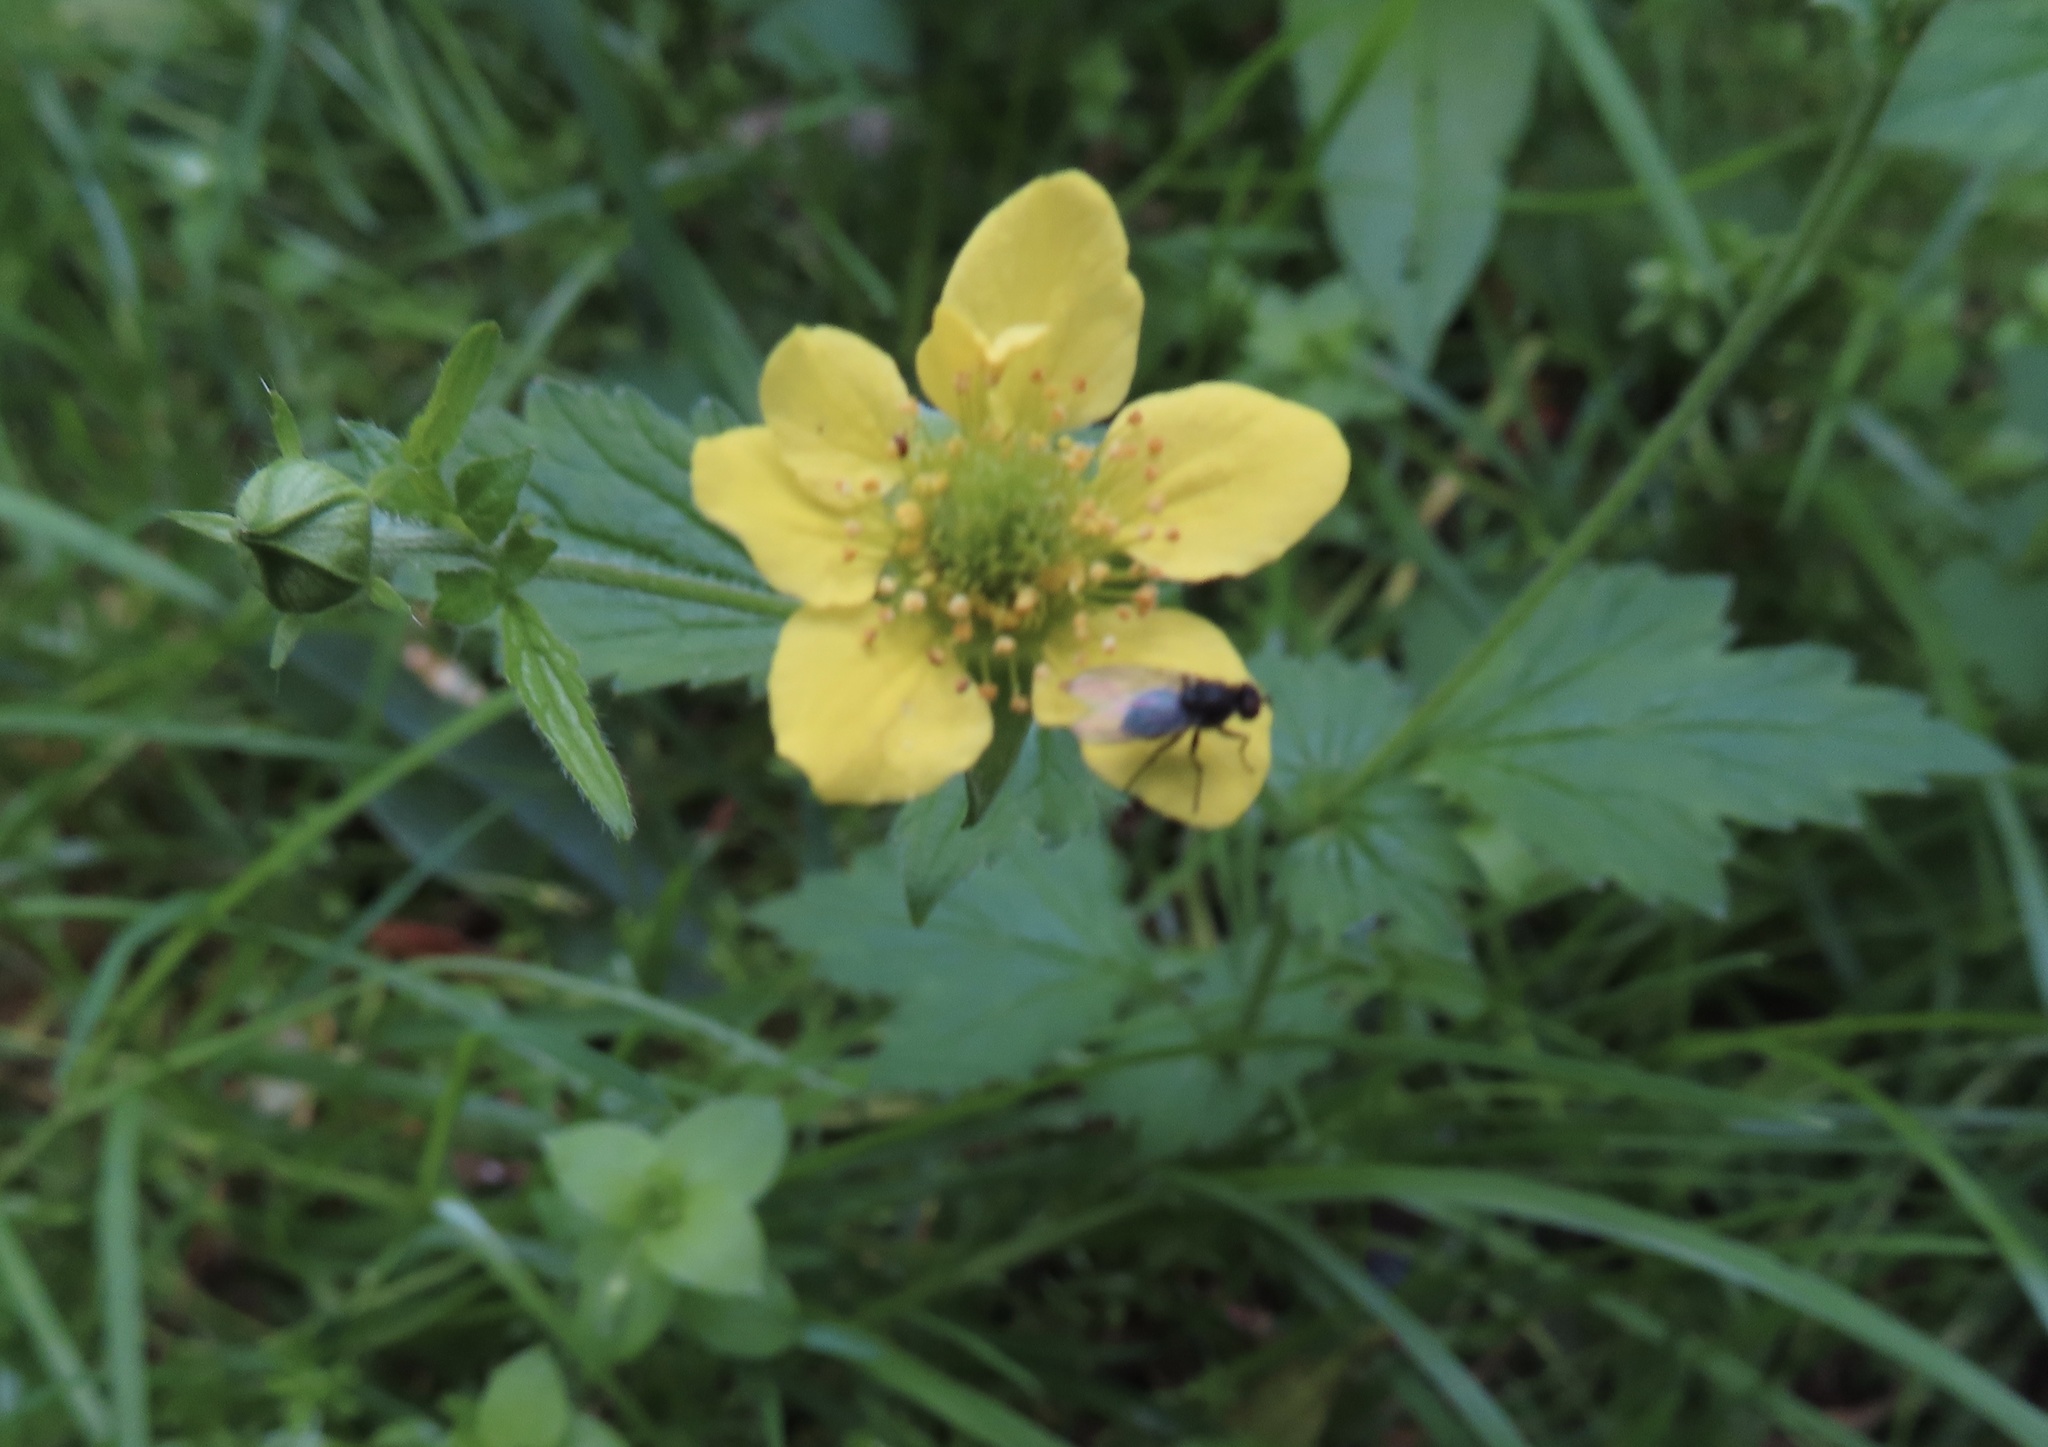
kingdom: Plantae
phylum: Tracheophyta
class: Magnoliopsida
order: Rosales
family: Rosaceae
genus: Geum
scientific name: Geum urbanum
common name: Wood avens
